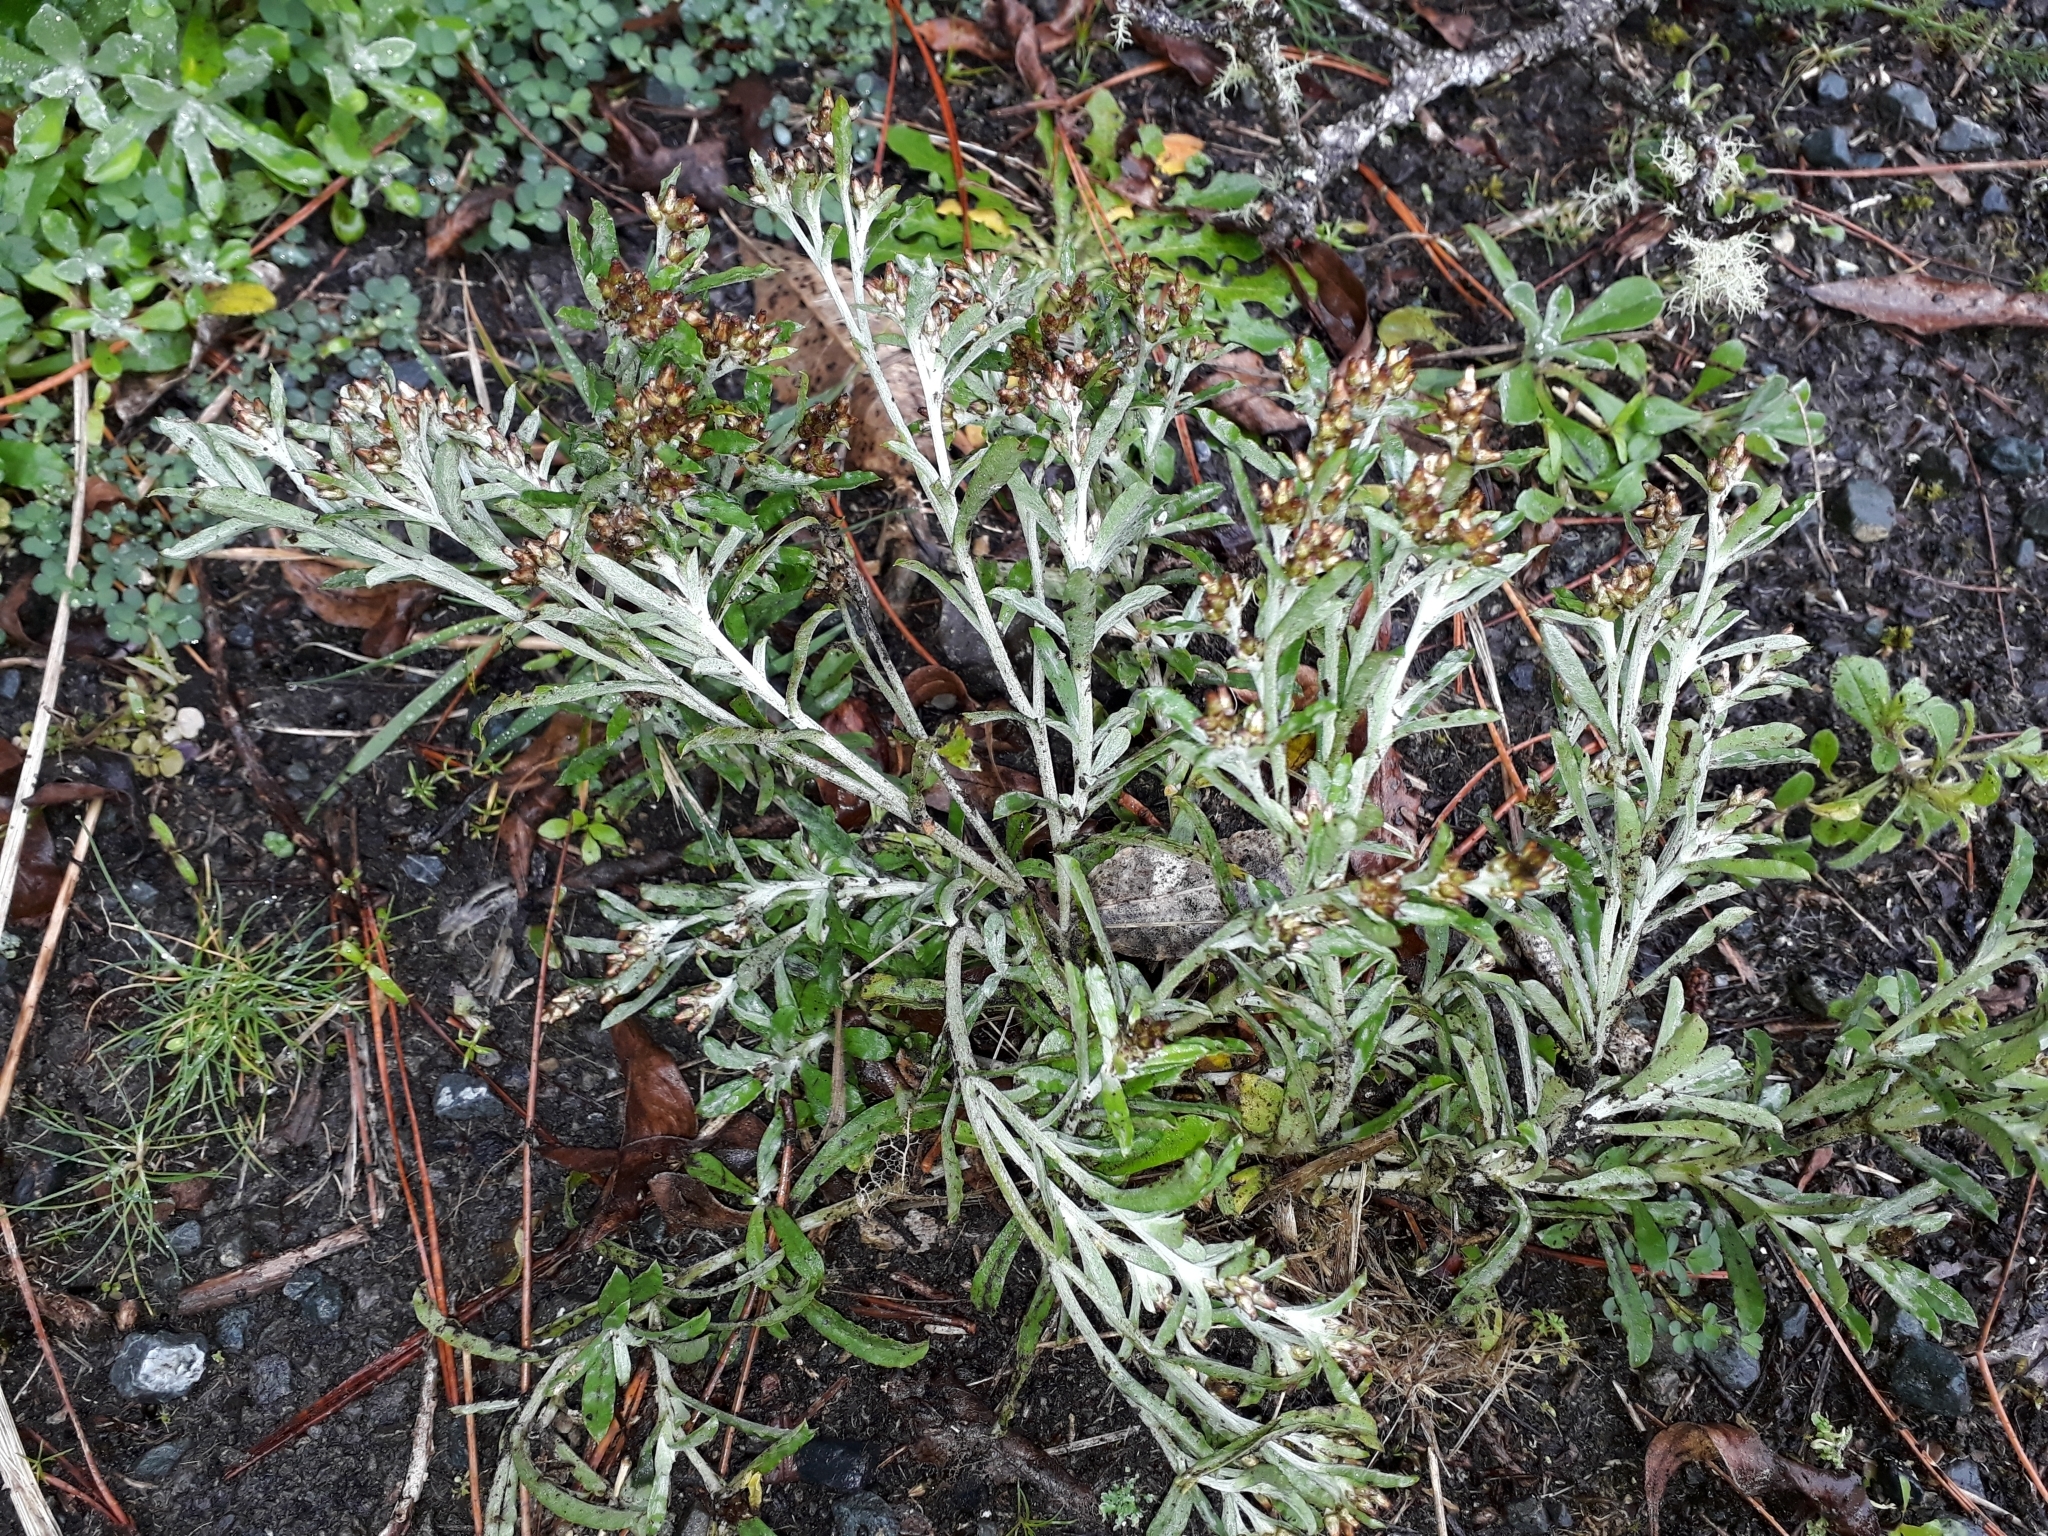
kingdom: Plantae
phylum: Tracheophyta
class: Magnoliopsida
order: Asterales
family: Asteraceae
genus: Gamochaeta
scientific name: Gamochaeta americana
